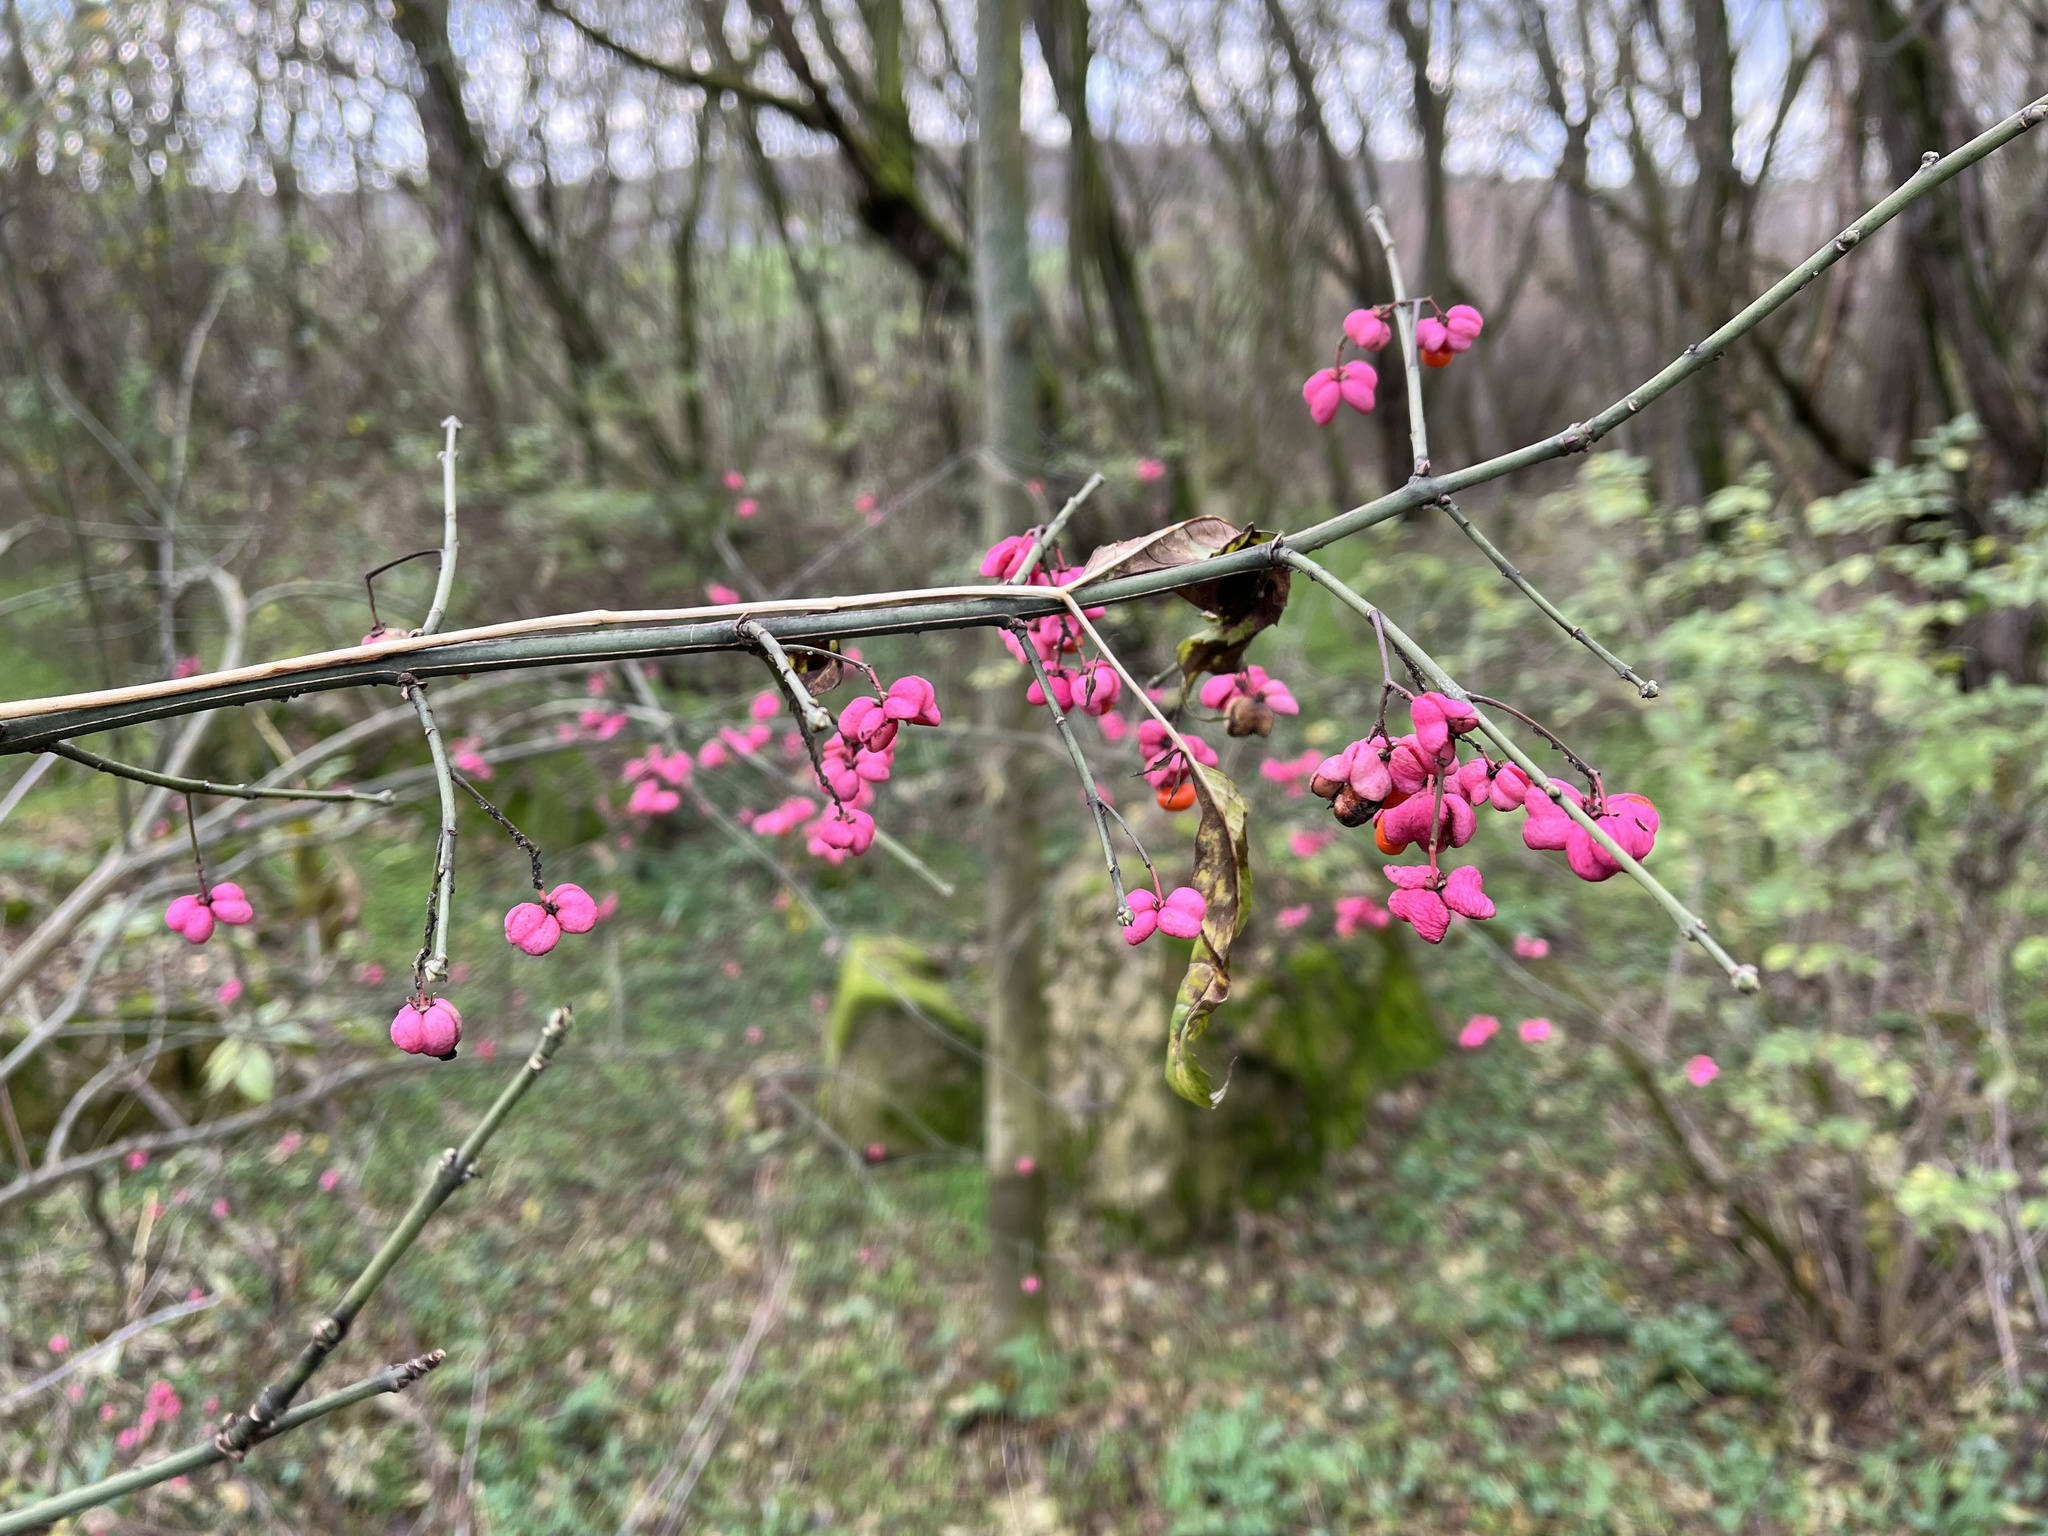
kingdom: Plantae
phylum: Tracheophyta
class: Magnoliopsida
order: Celastrales
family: Celastraceae
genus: Euonymus
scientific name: Euonymus europaeus
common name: Spindle
